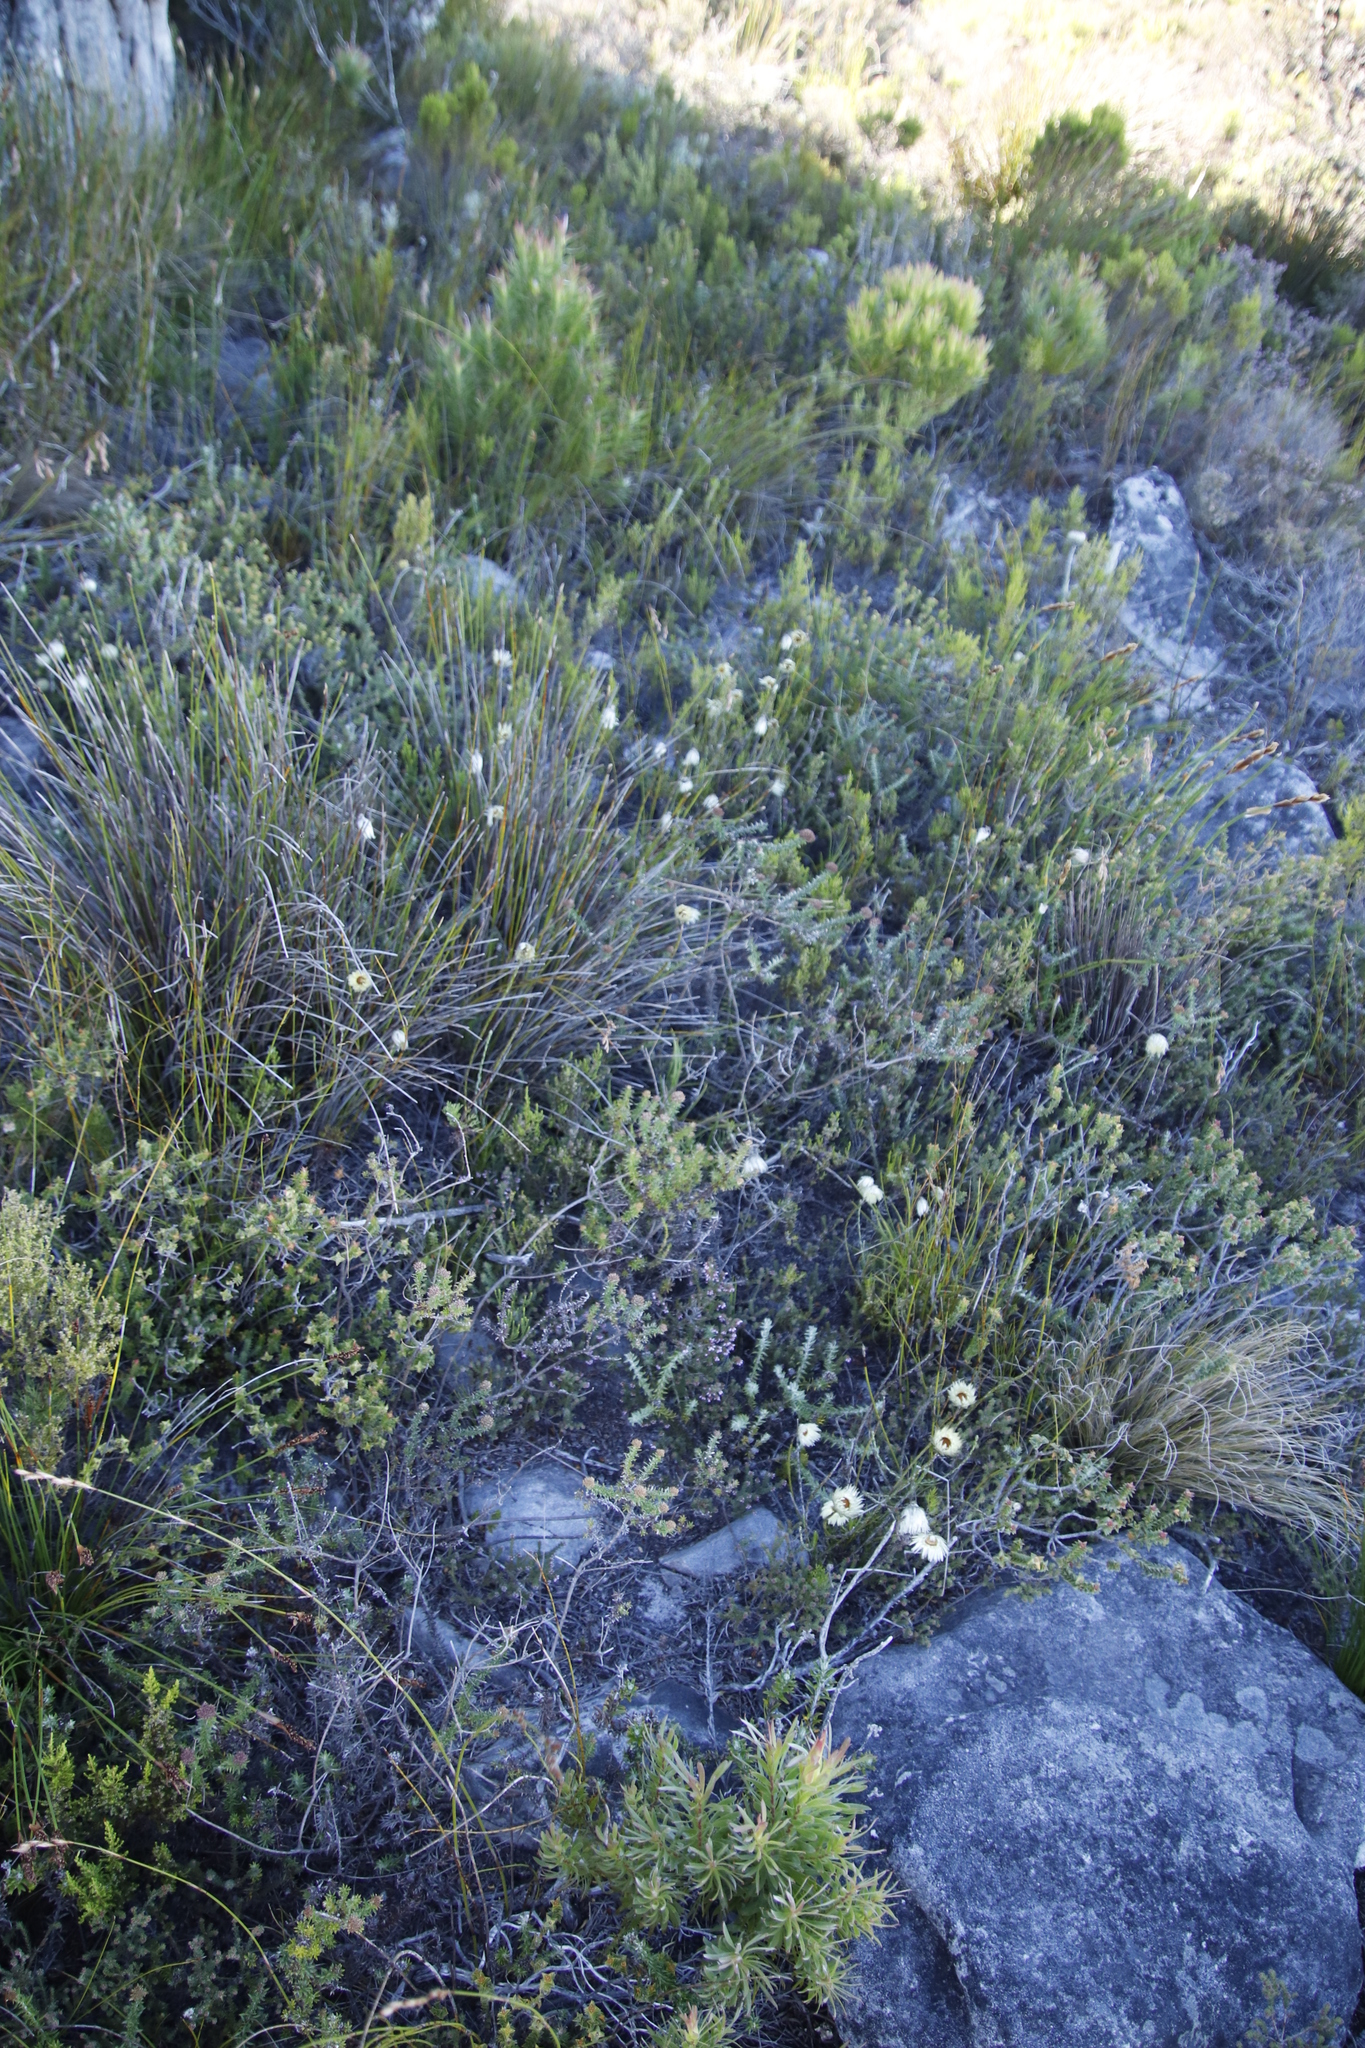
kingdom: Plantae
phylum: Tracheophyta
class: Magnoliopsida
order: Asterales
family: Asteraceae
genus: Edmondia
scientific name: Edmondia sesamoides
